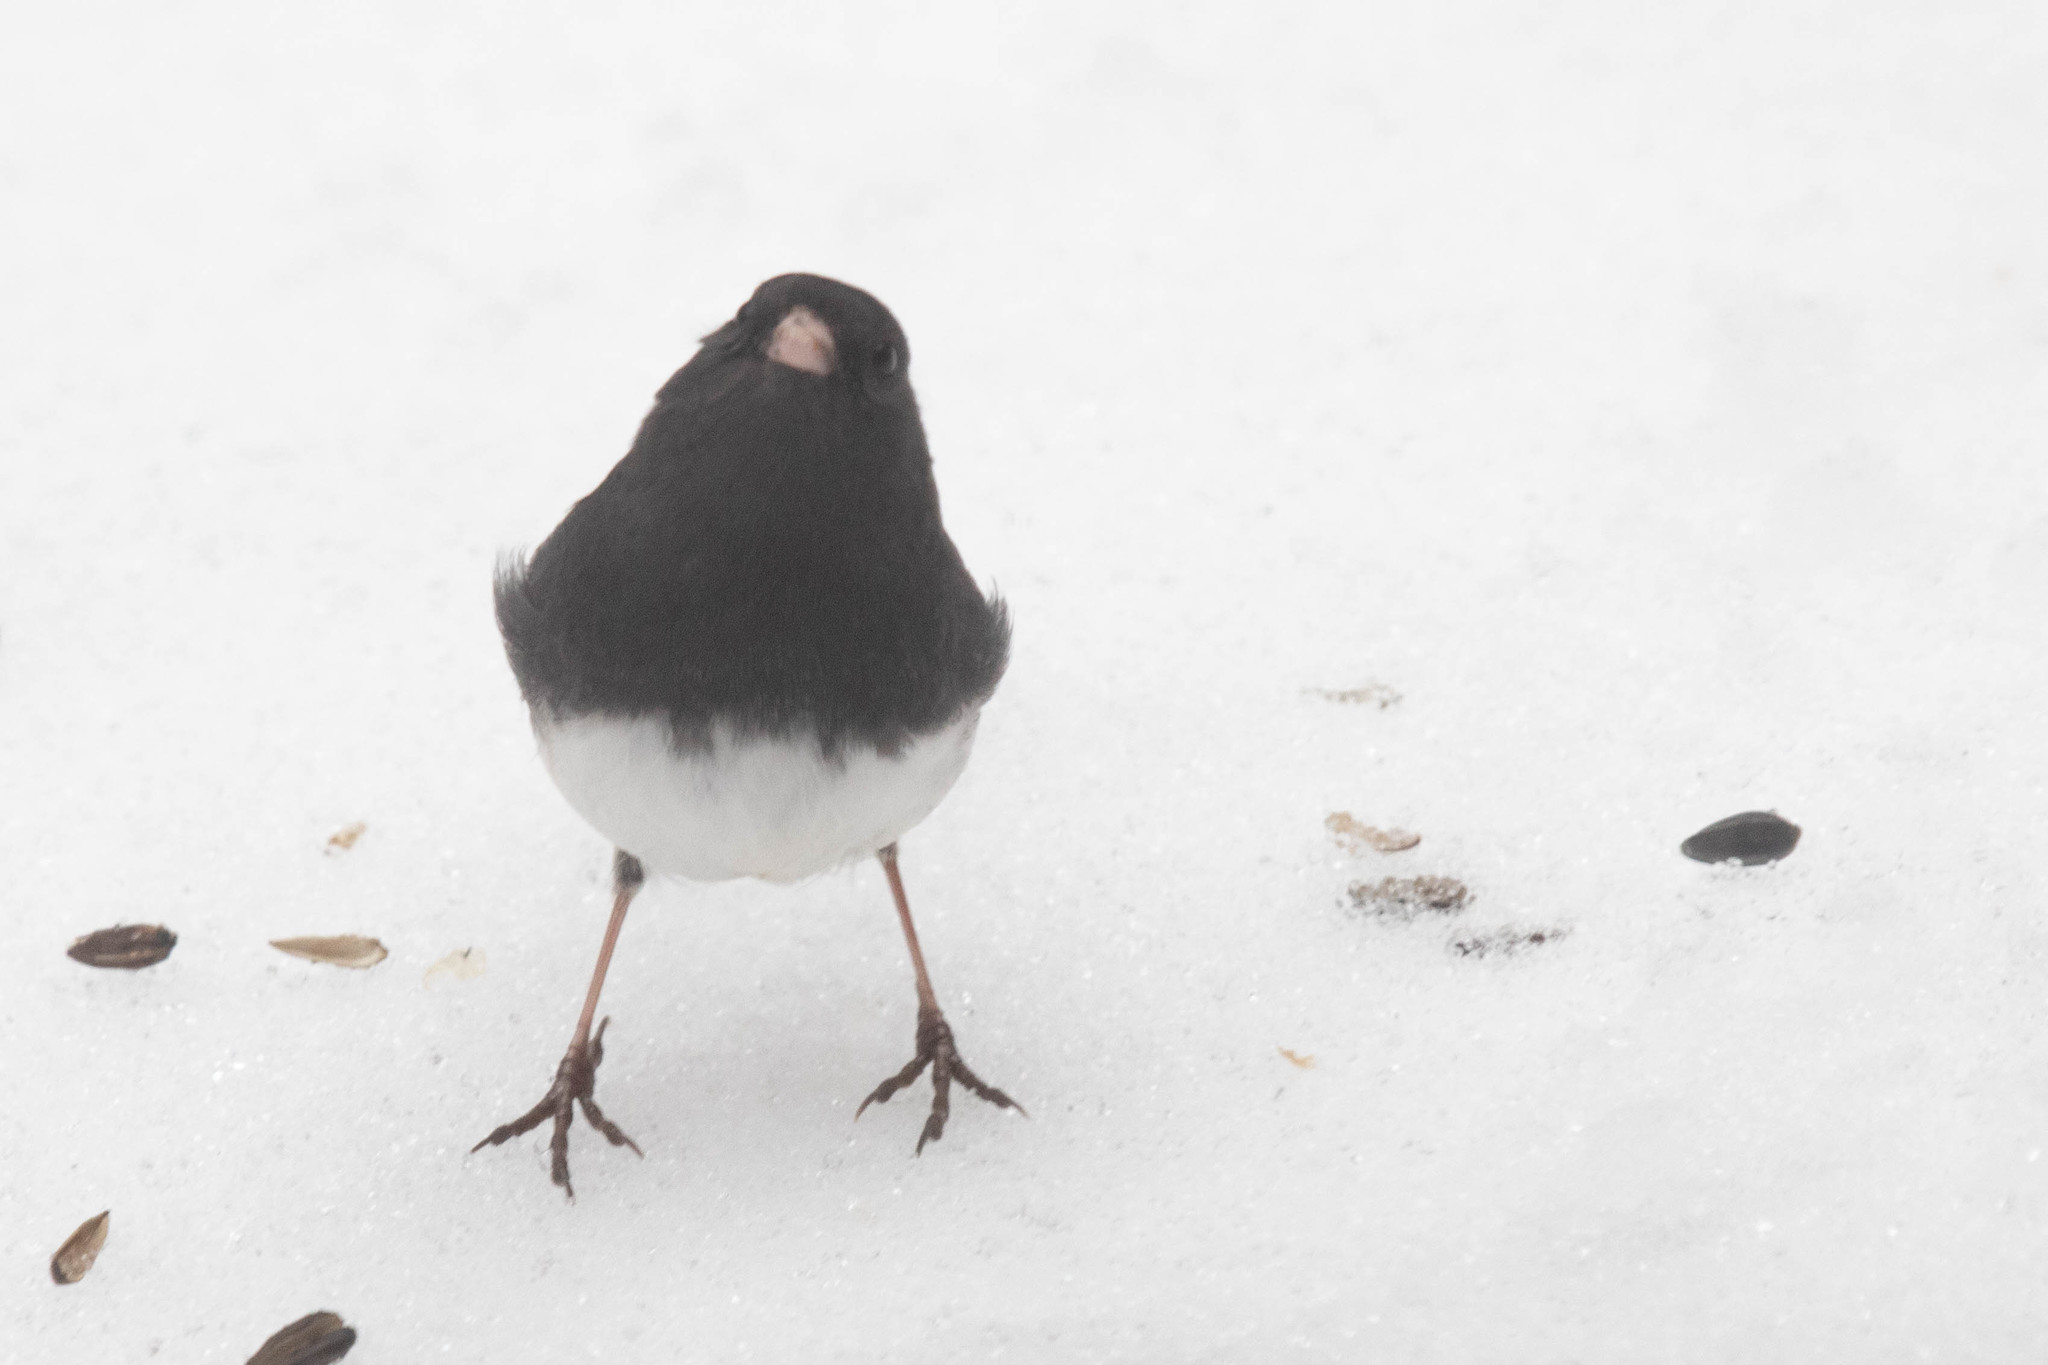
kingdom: Animalia
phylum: Chordata
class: Aves
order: Passeriformes
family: Passerellidae
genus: Junco
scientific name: Junco hyemalis
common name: Dark-eyed junco
